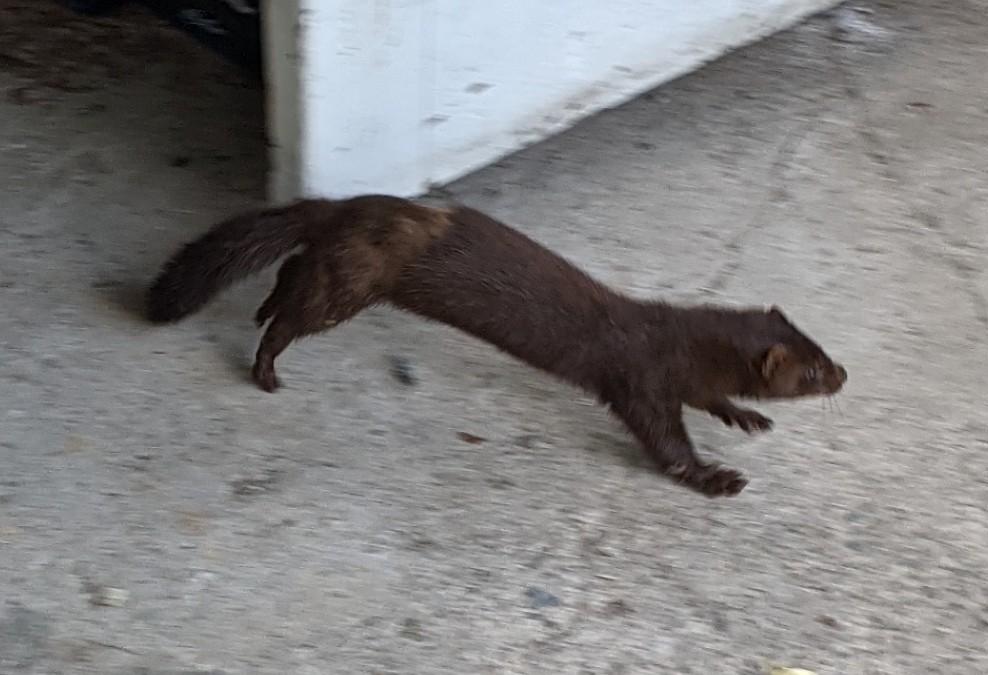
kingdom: Animalia
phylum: Chordata
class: Mammalia
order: Carnivora
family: Mustelidae
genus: Mustela
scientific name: Mustela
